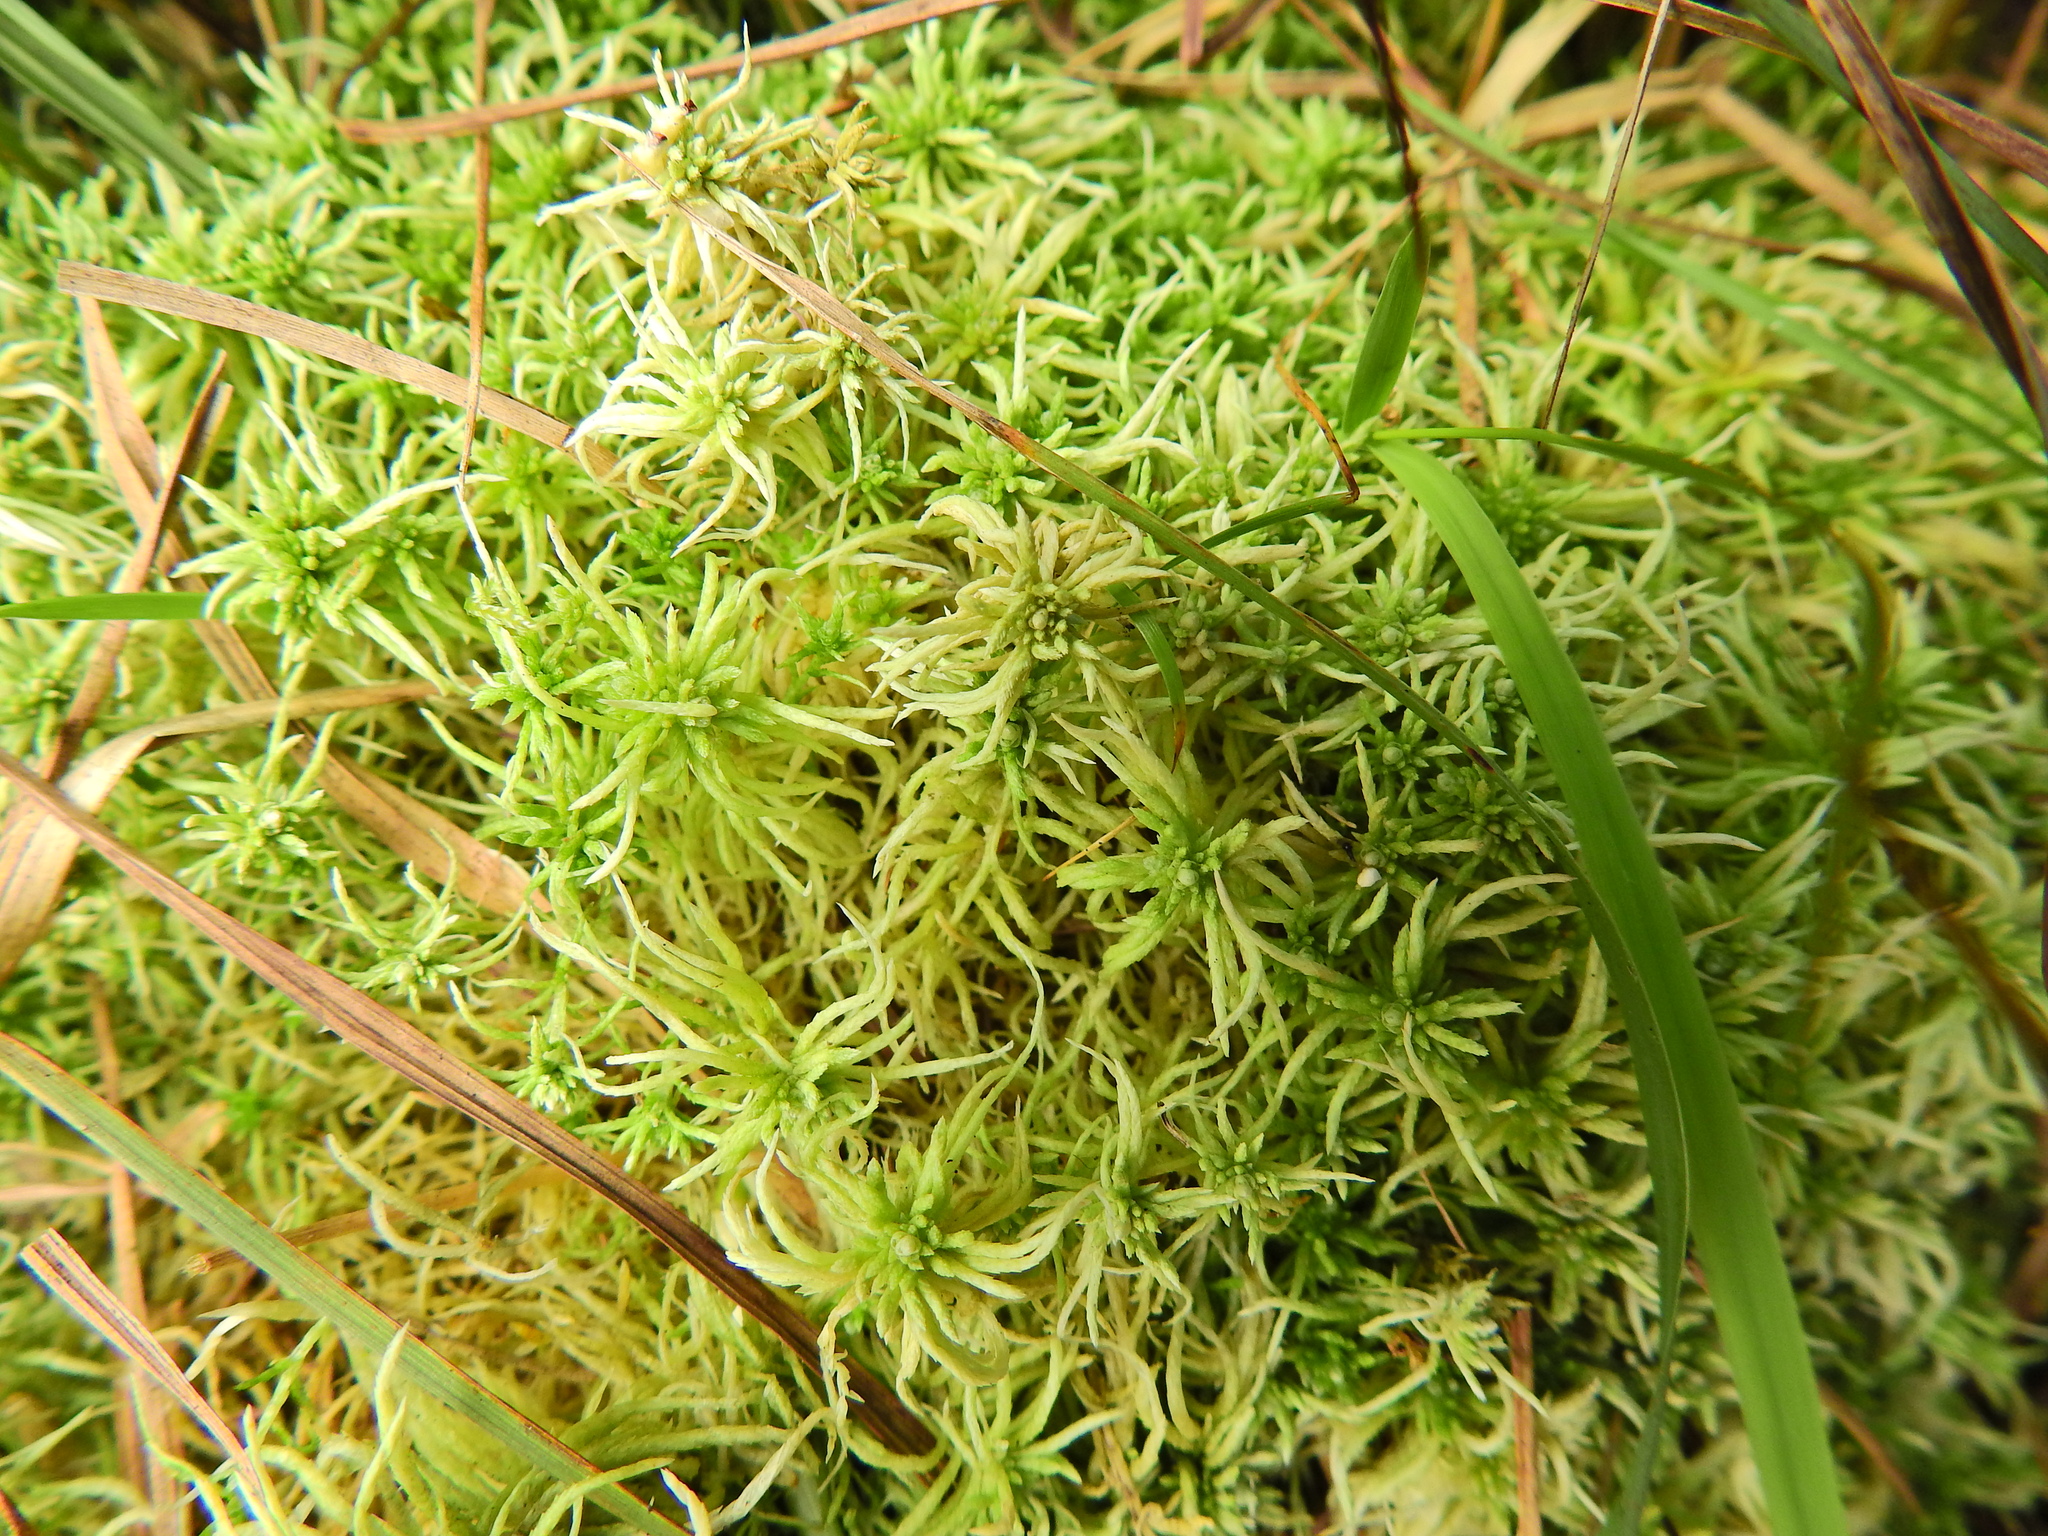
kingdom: Plantae
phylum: Bryophyta
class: Sphagnopsida
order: Sphagnales
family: Sphagnaceae
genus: Sphagnum
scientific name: Sphagnum fimbriatum
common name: Fringed peat moss
